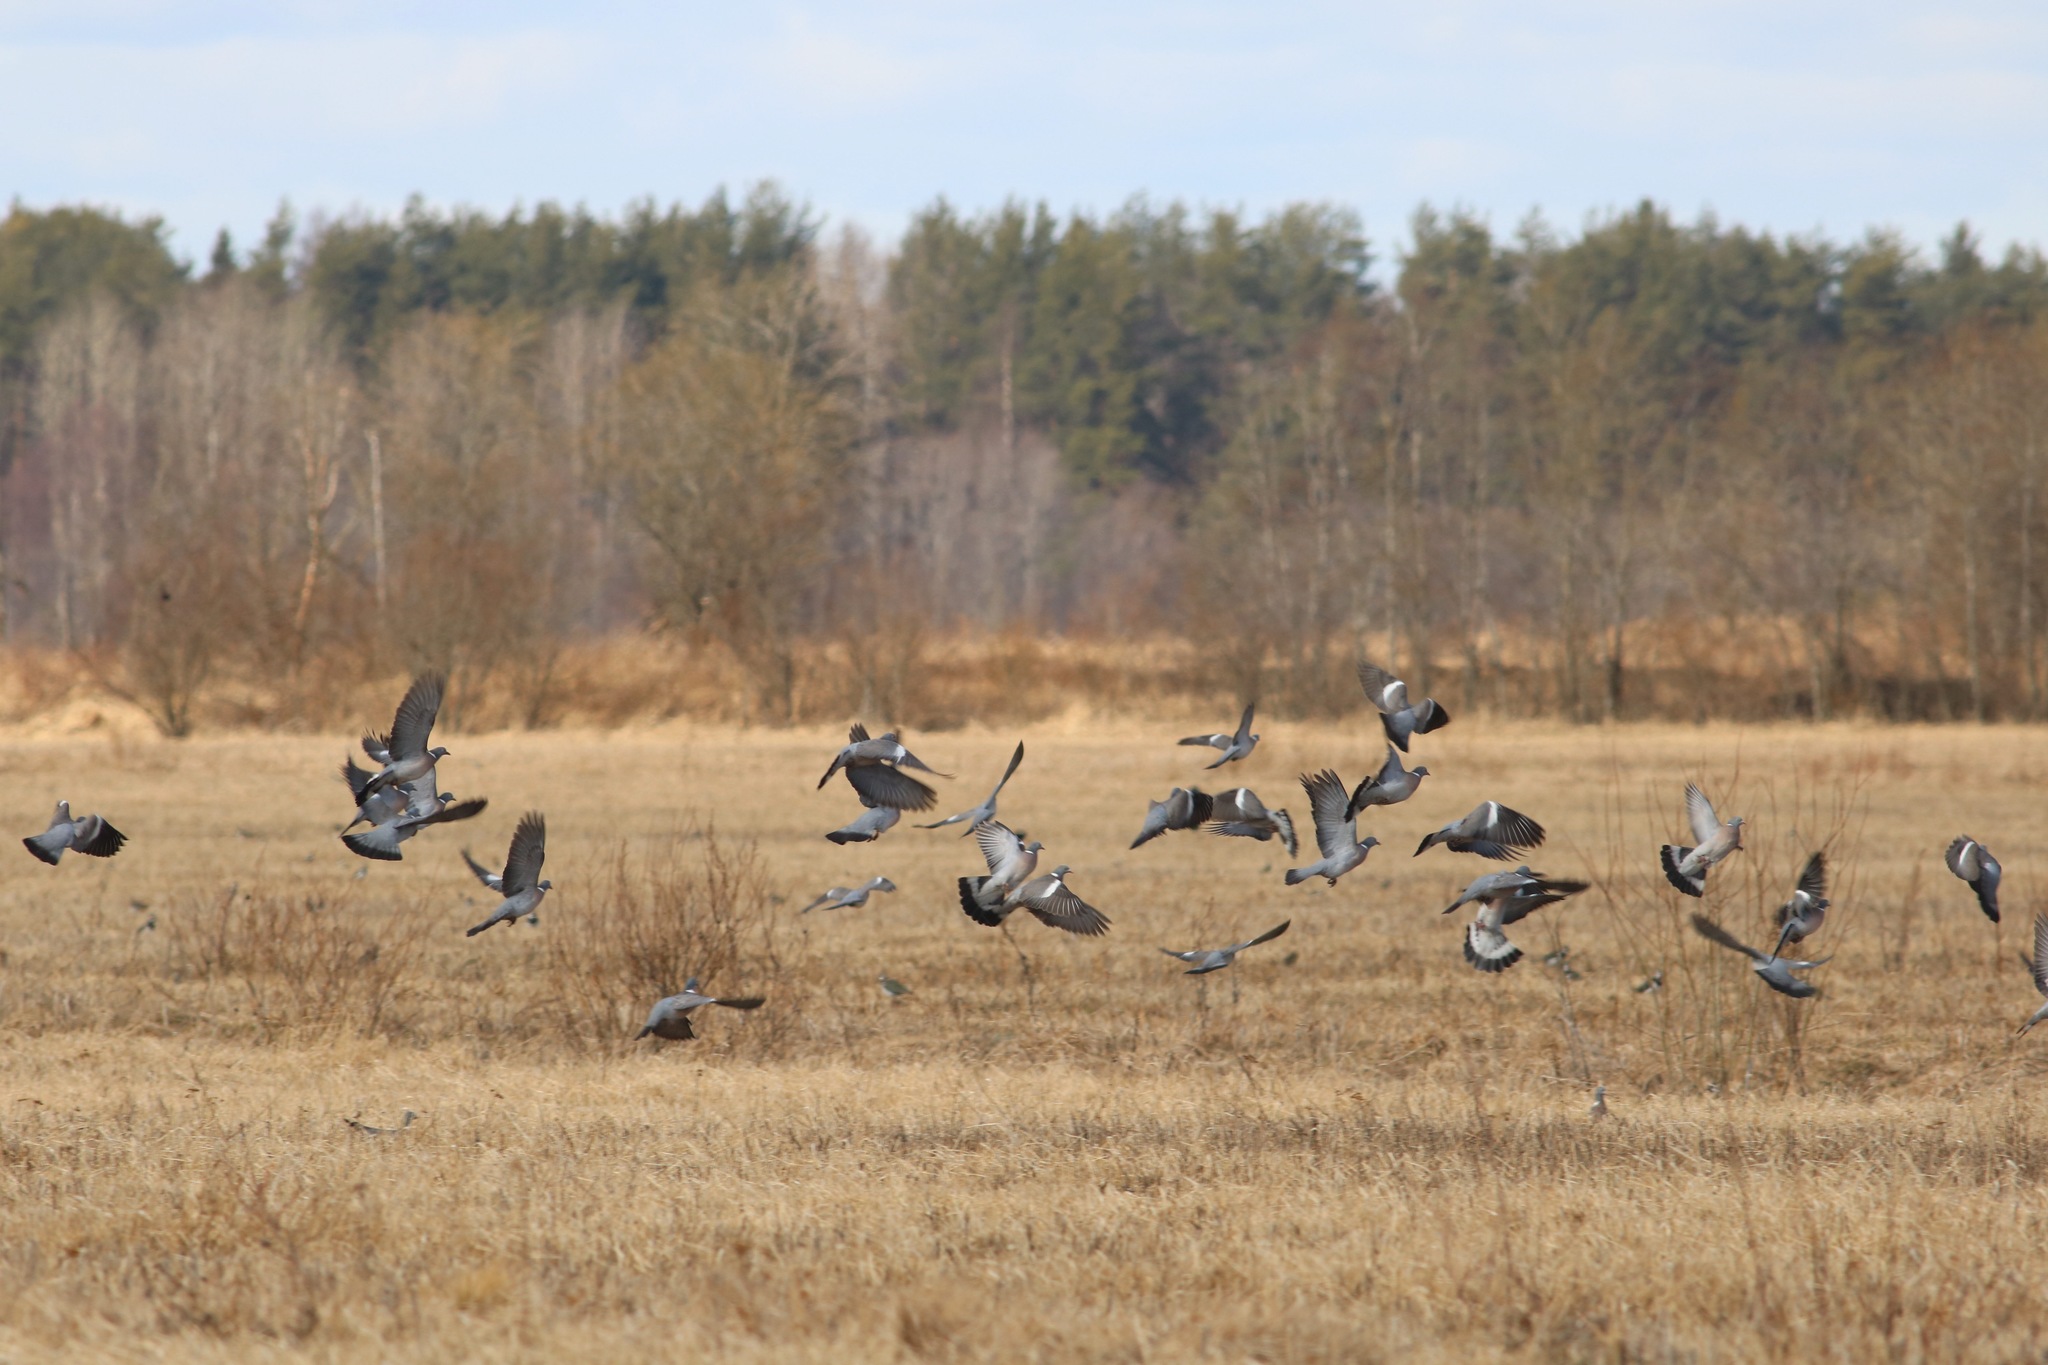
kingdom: Animalia
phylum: Chordata
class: Aves
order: Columbiformes
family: Columbidae
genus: Columba
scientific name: Columba palumbus
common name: Common wood pigeon
